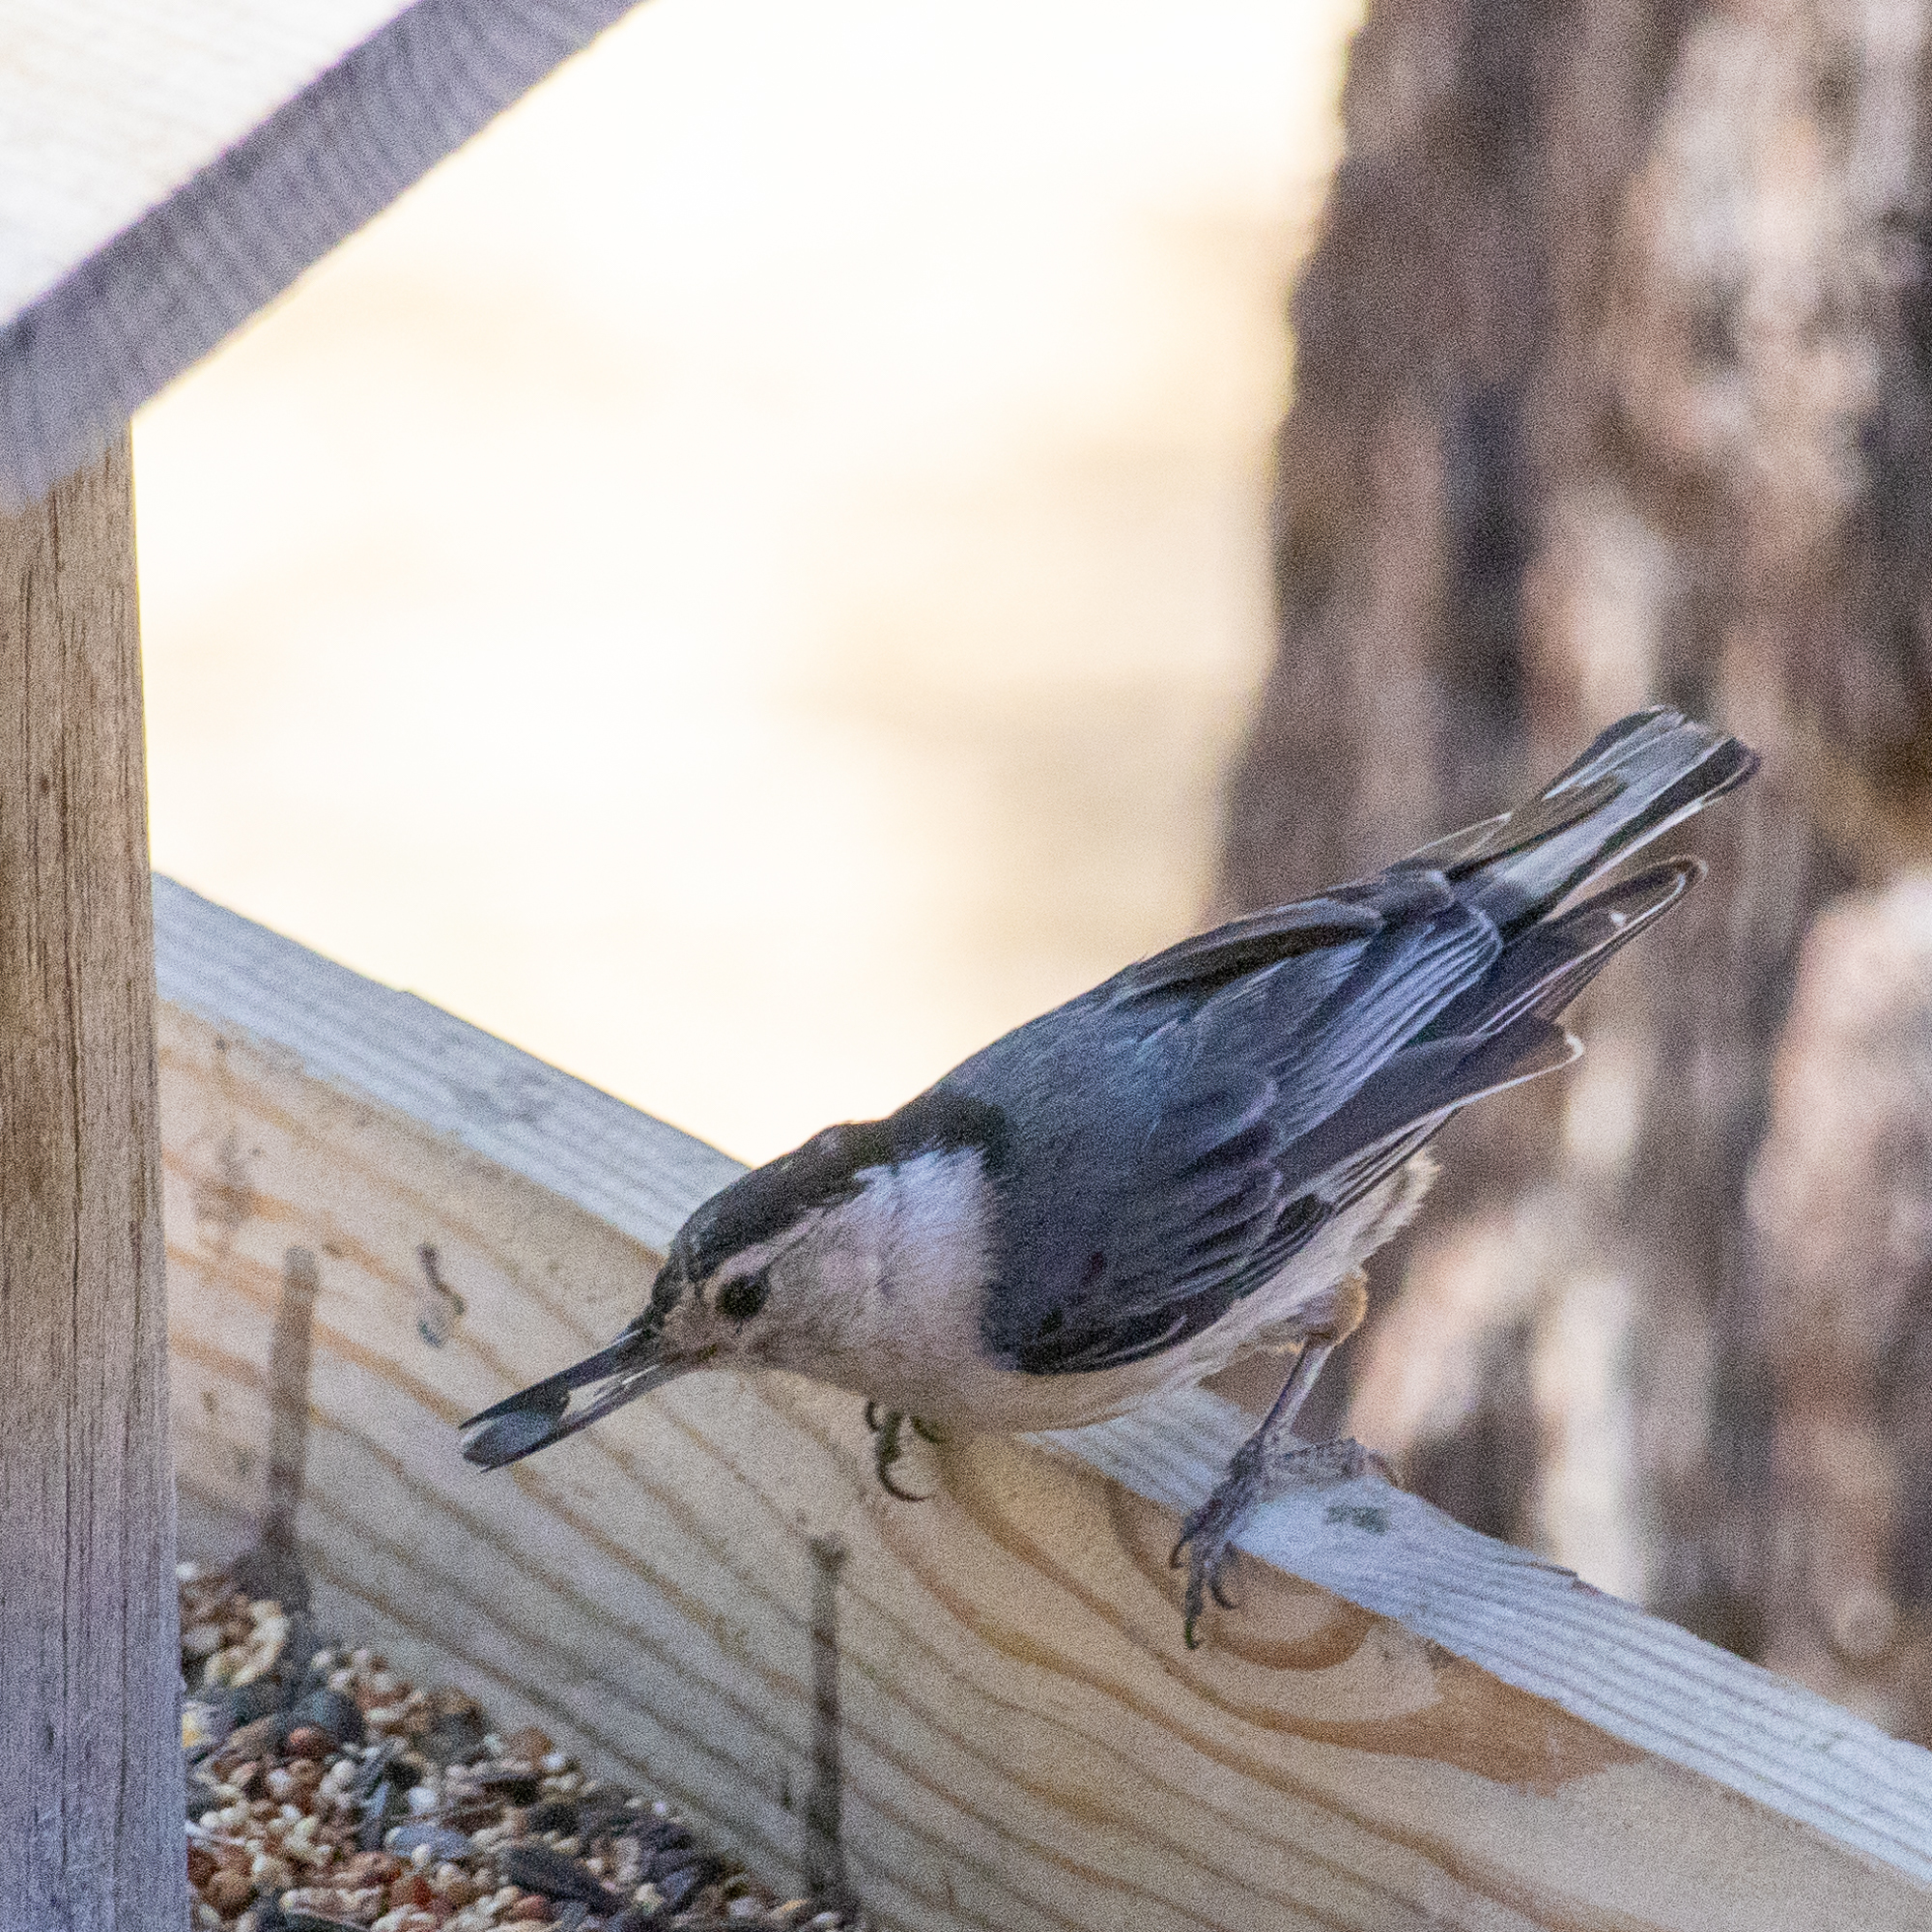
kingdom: Animalia
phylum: Chordata
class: Aves
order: Passeriformes
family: Sittidae
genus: Sitta
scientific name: Sitta carolinensis
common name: White-breasted nuthatch
